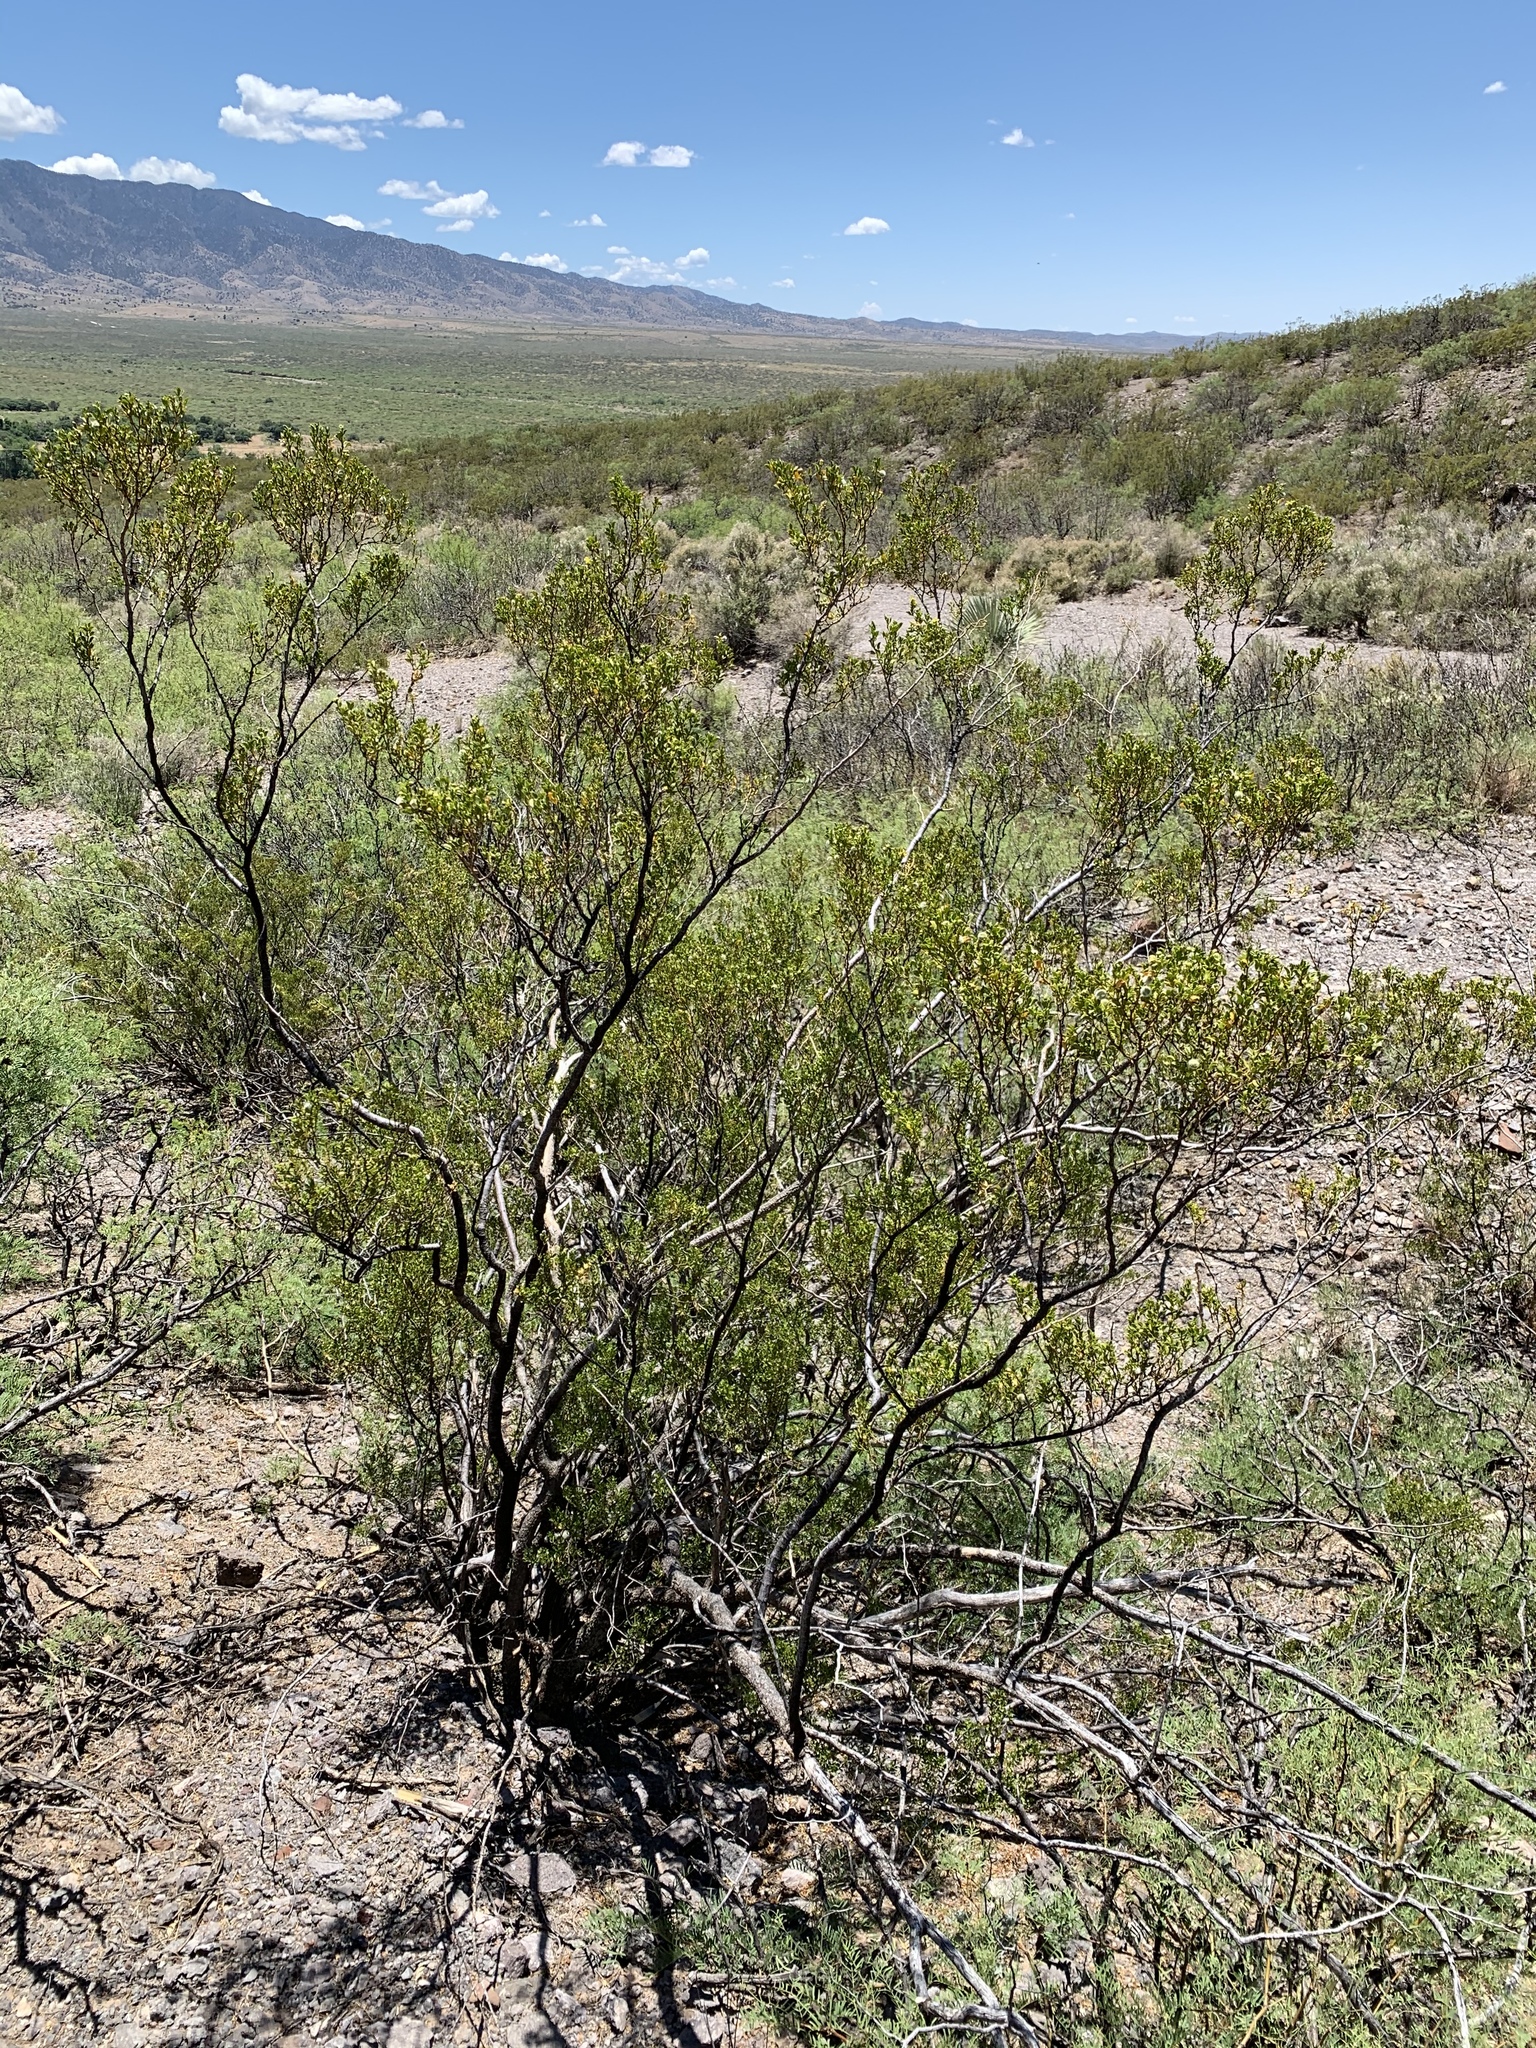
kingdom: Plantae
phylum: Tracheophyta
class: Magnoliopsida
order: Zygophyllales
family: Zygophyllaceae
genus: Larrea
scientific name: Larrea tridentata
